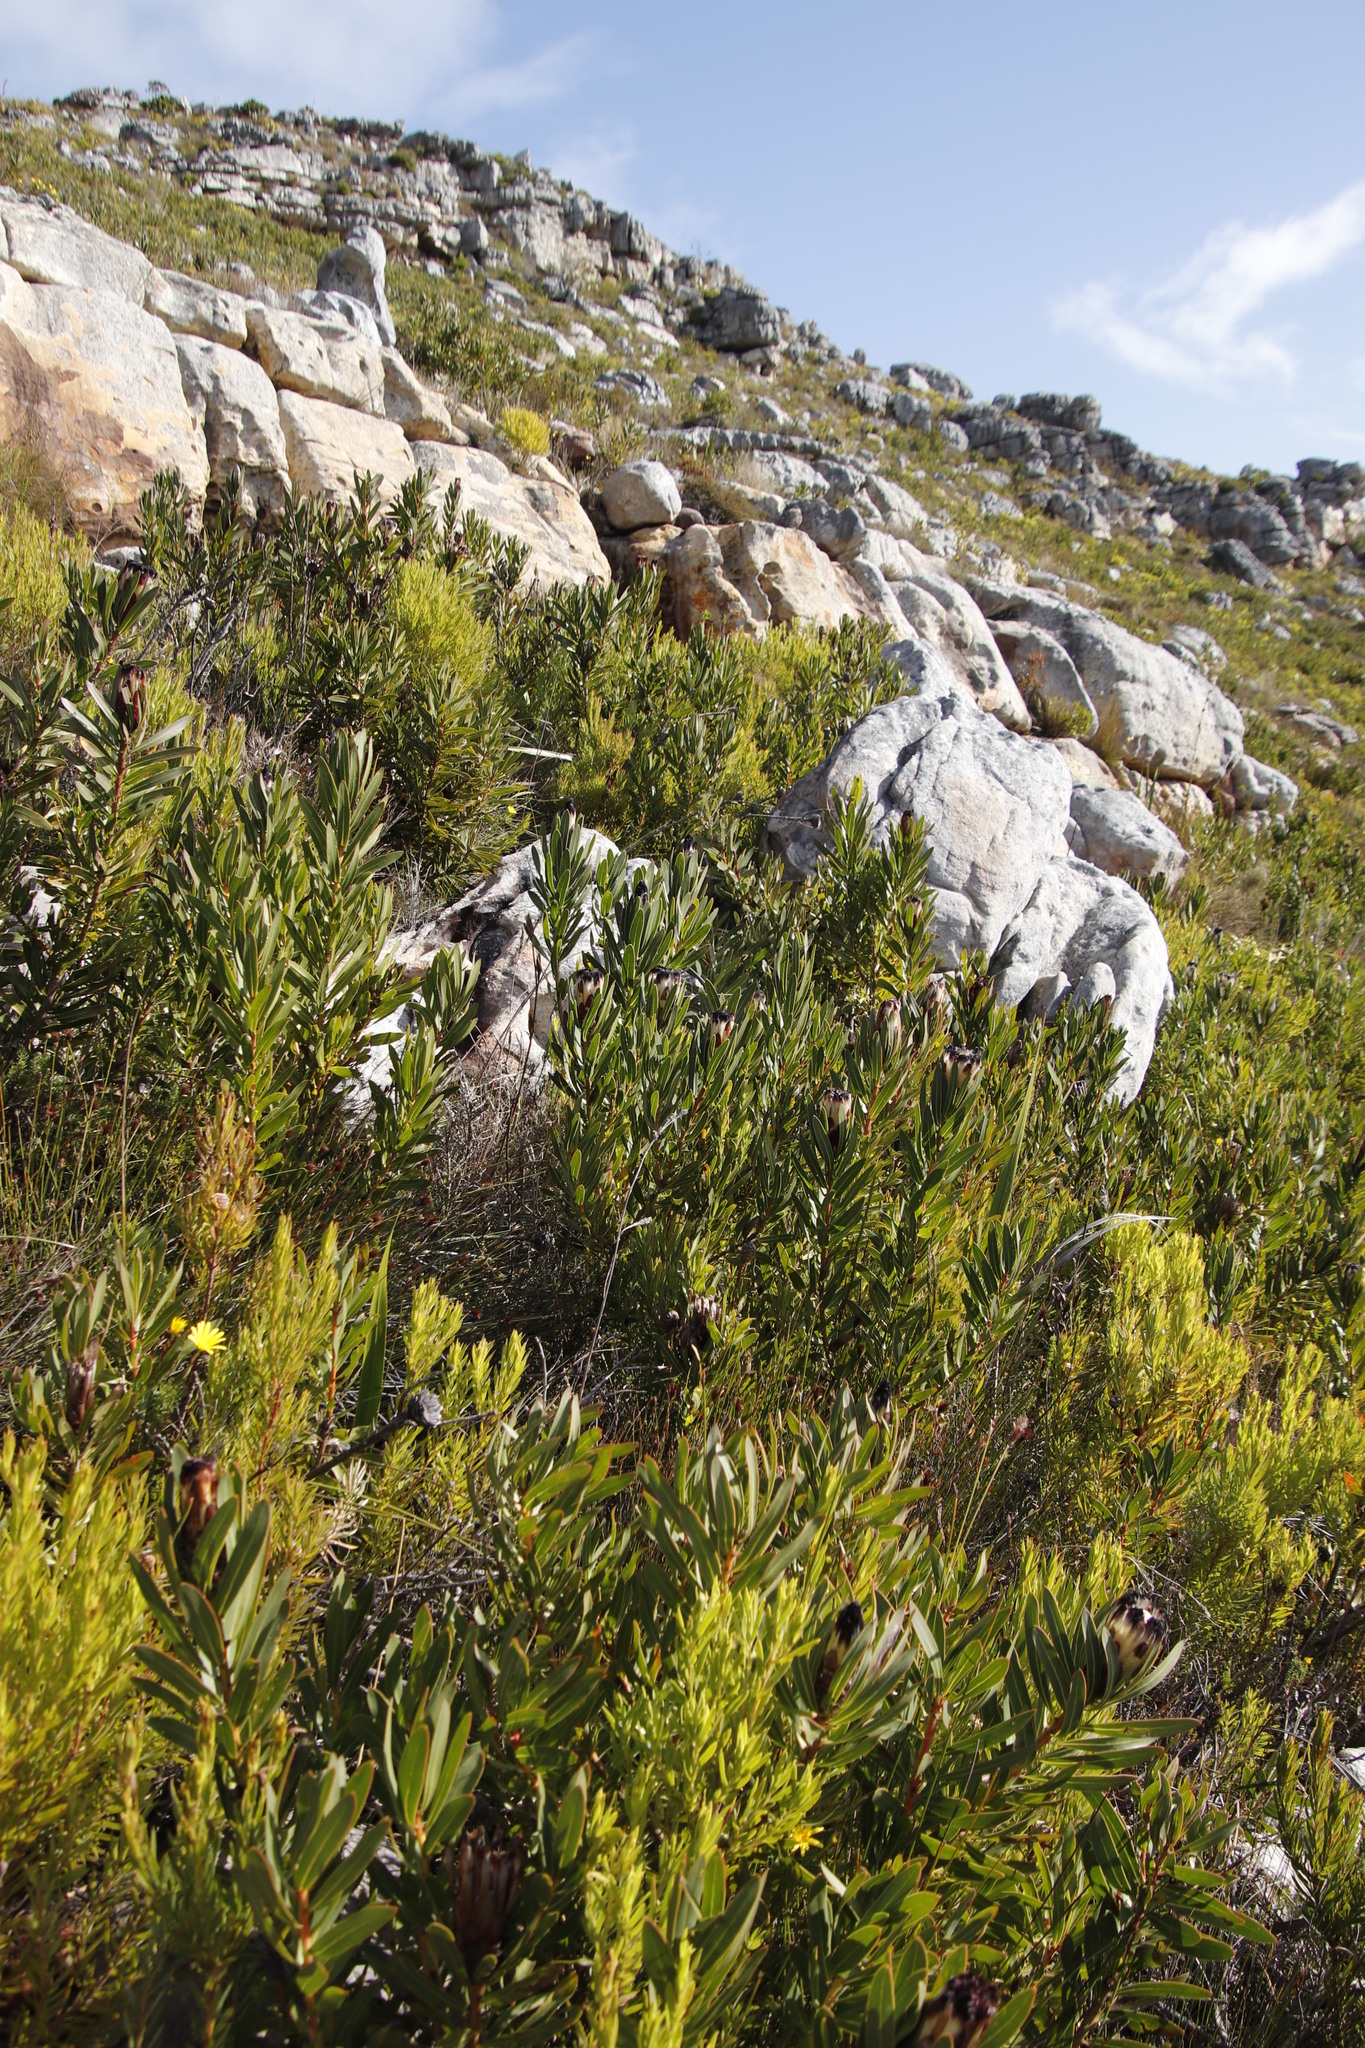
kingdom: Plantae
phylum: Tracheophyta
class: Magnoliopsida
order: Proteales
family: Proteaceae
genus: Protea
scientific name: Protea lepidocarpodendron
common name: Black-bearded protea
